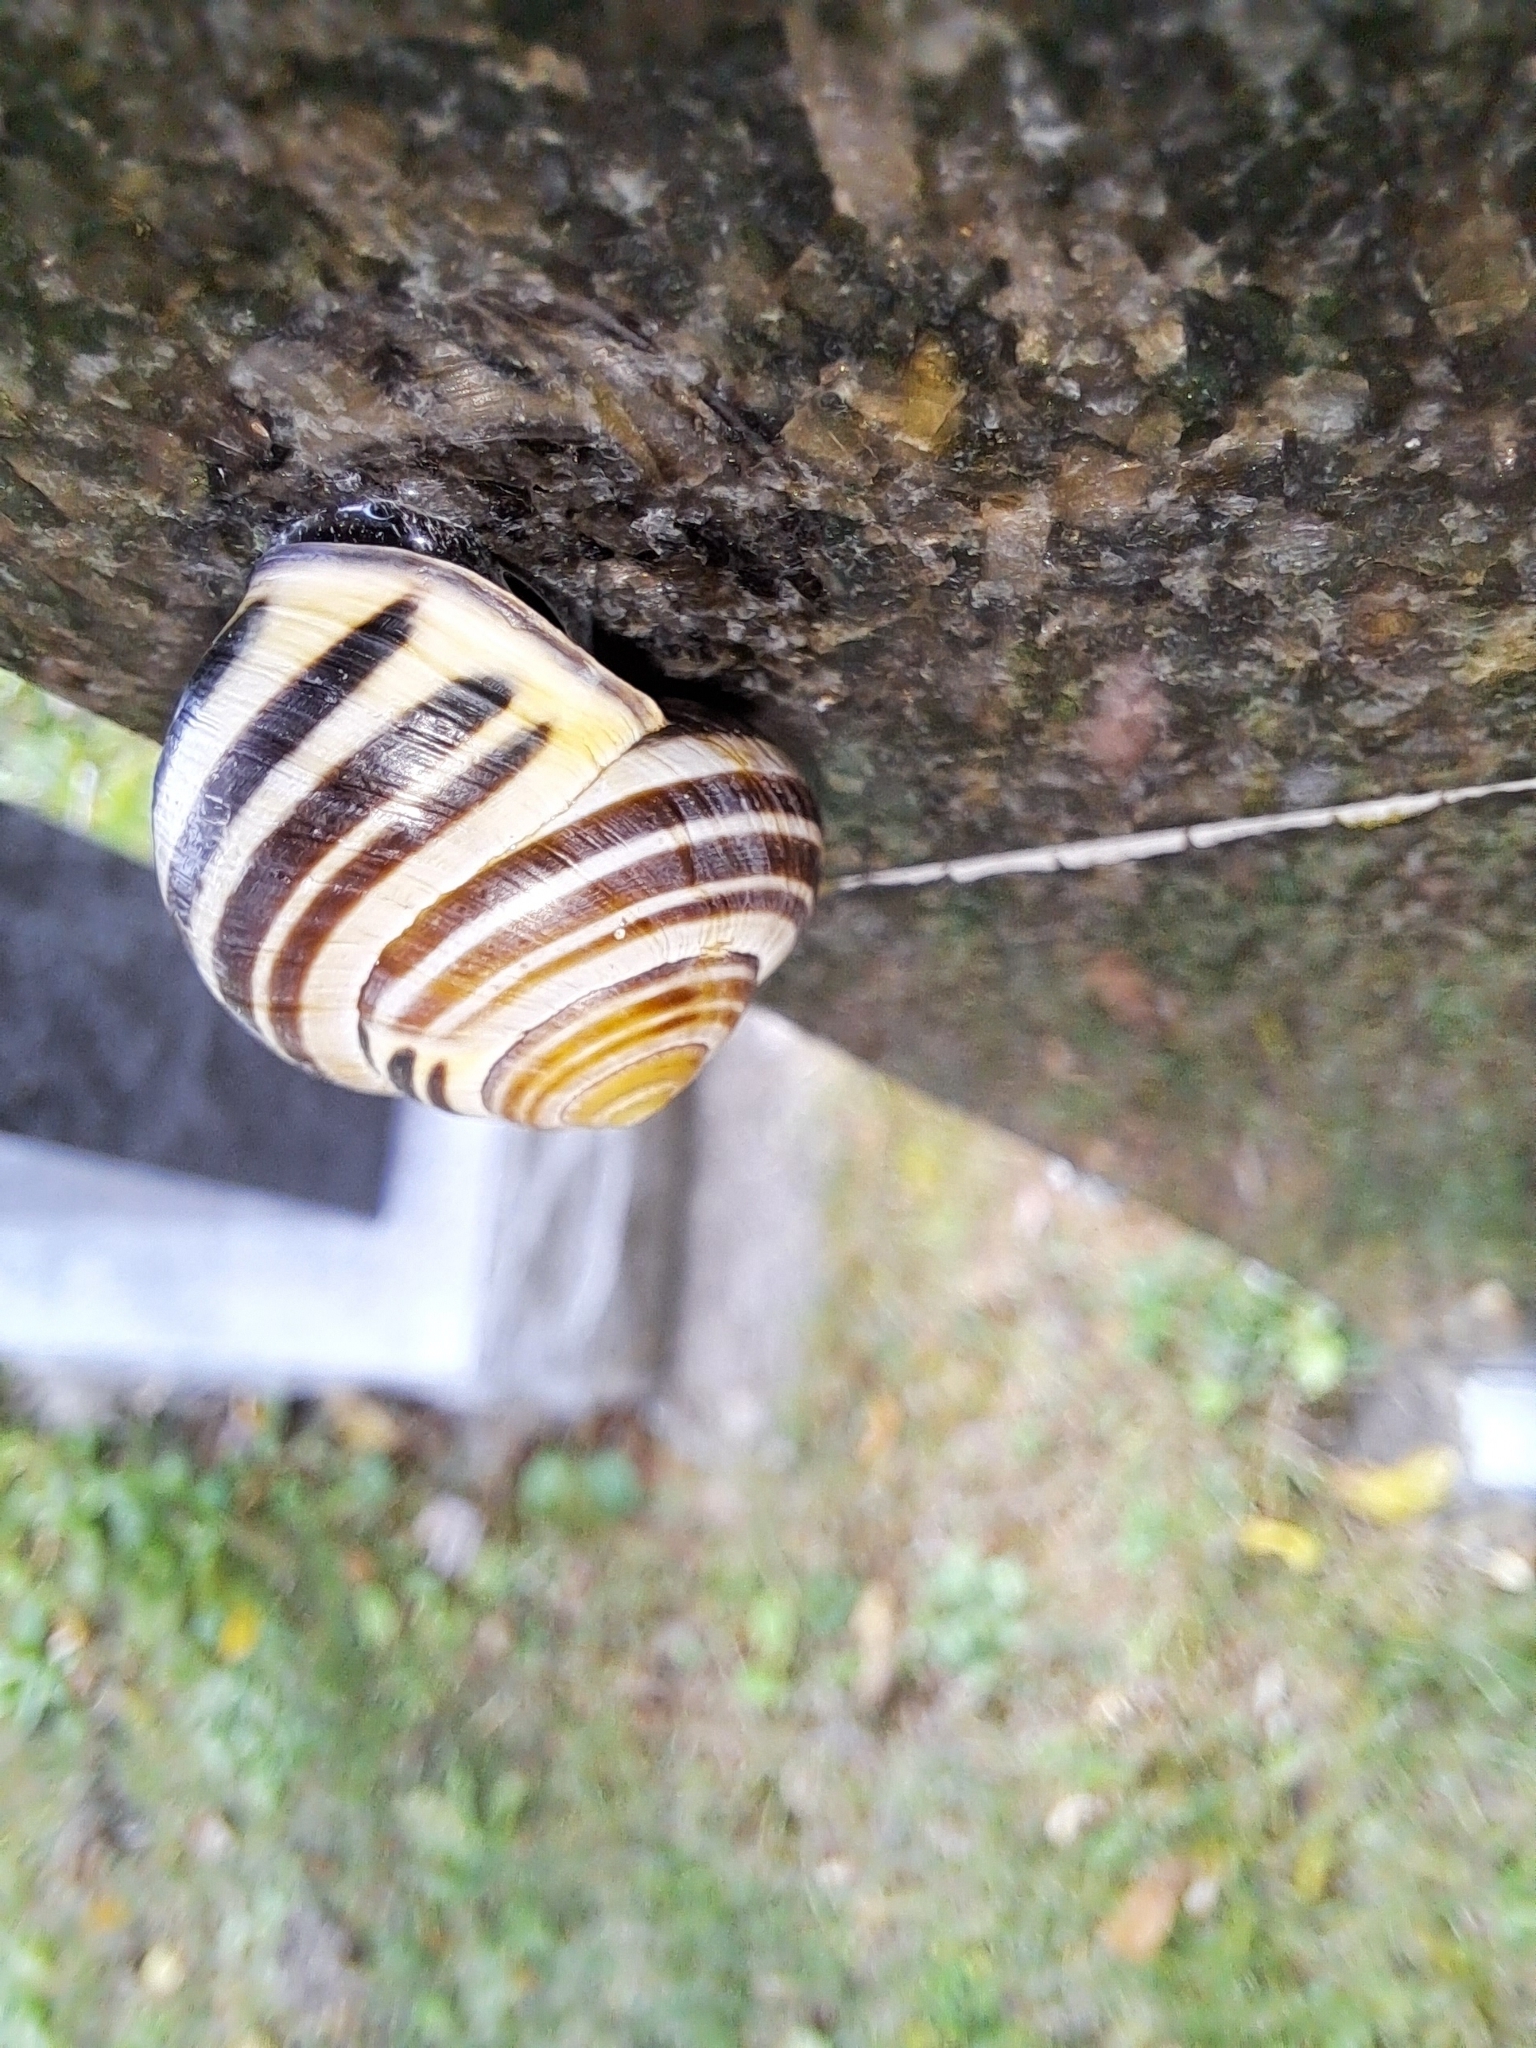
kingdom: Animalia
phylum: Mollusca
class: Gastropoda
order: Stylommatophora
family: Helicidae
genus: Cepaea
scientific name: Cepaea nemoralis
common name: Grovesnail
